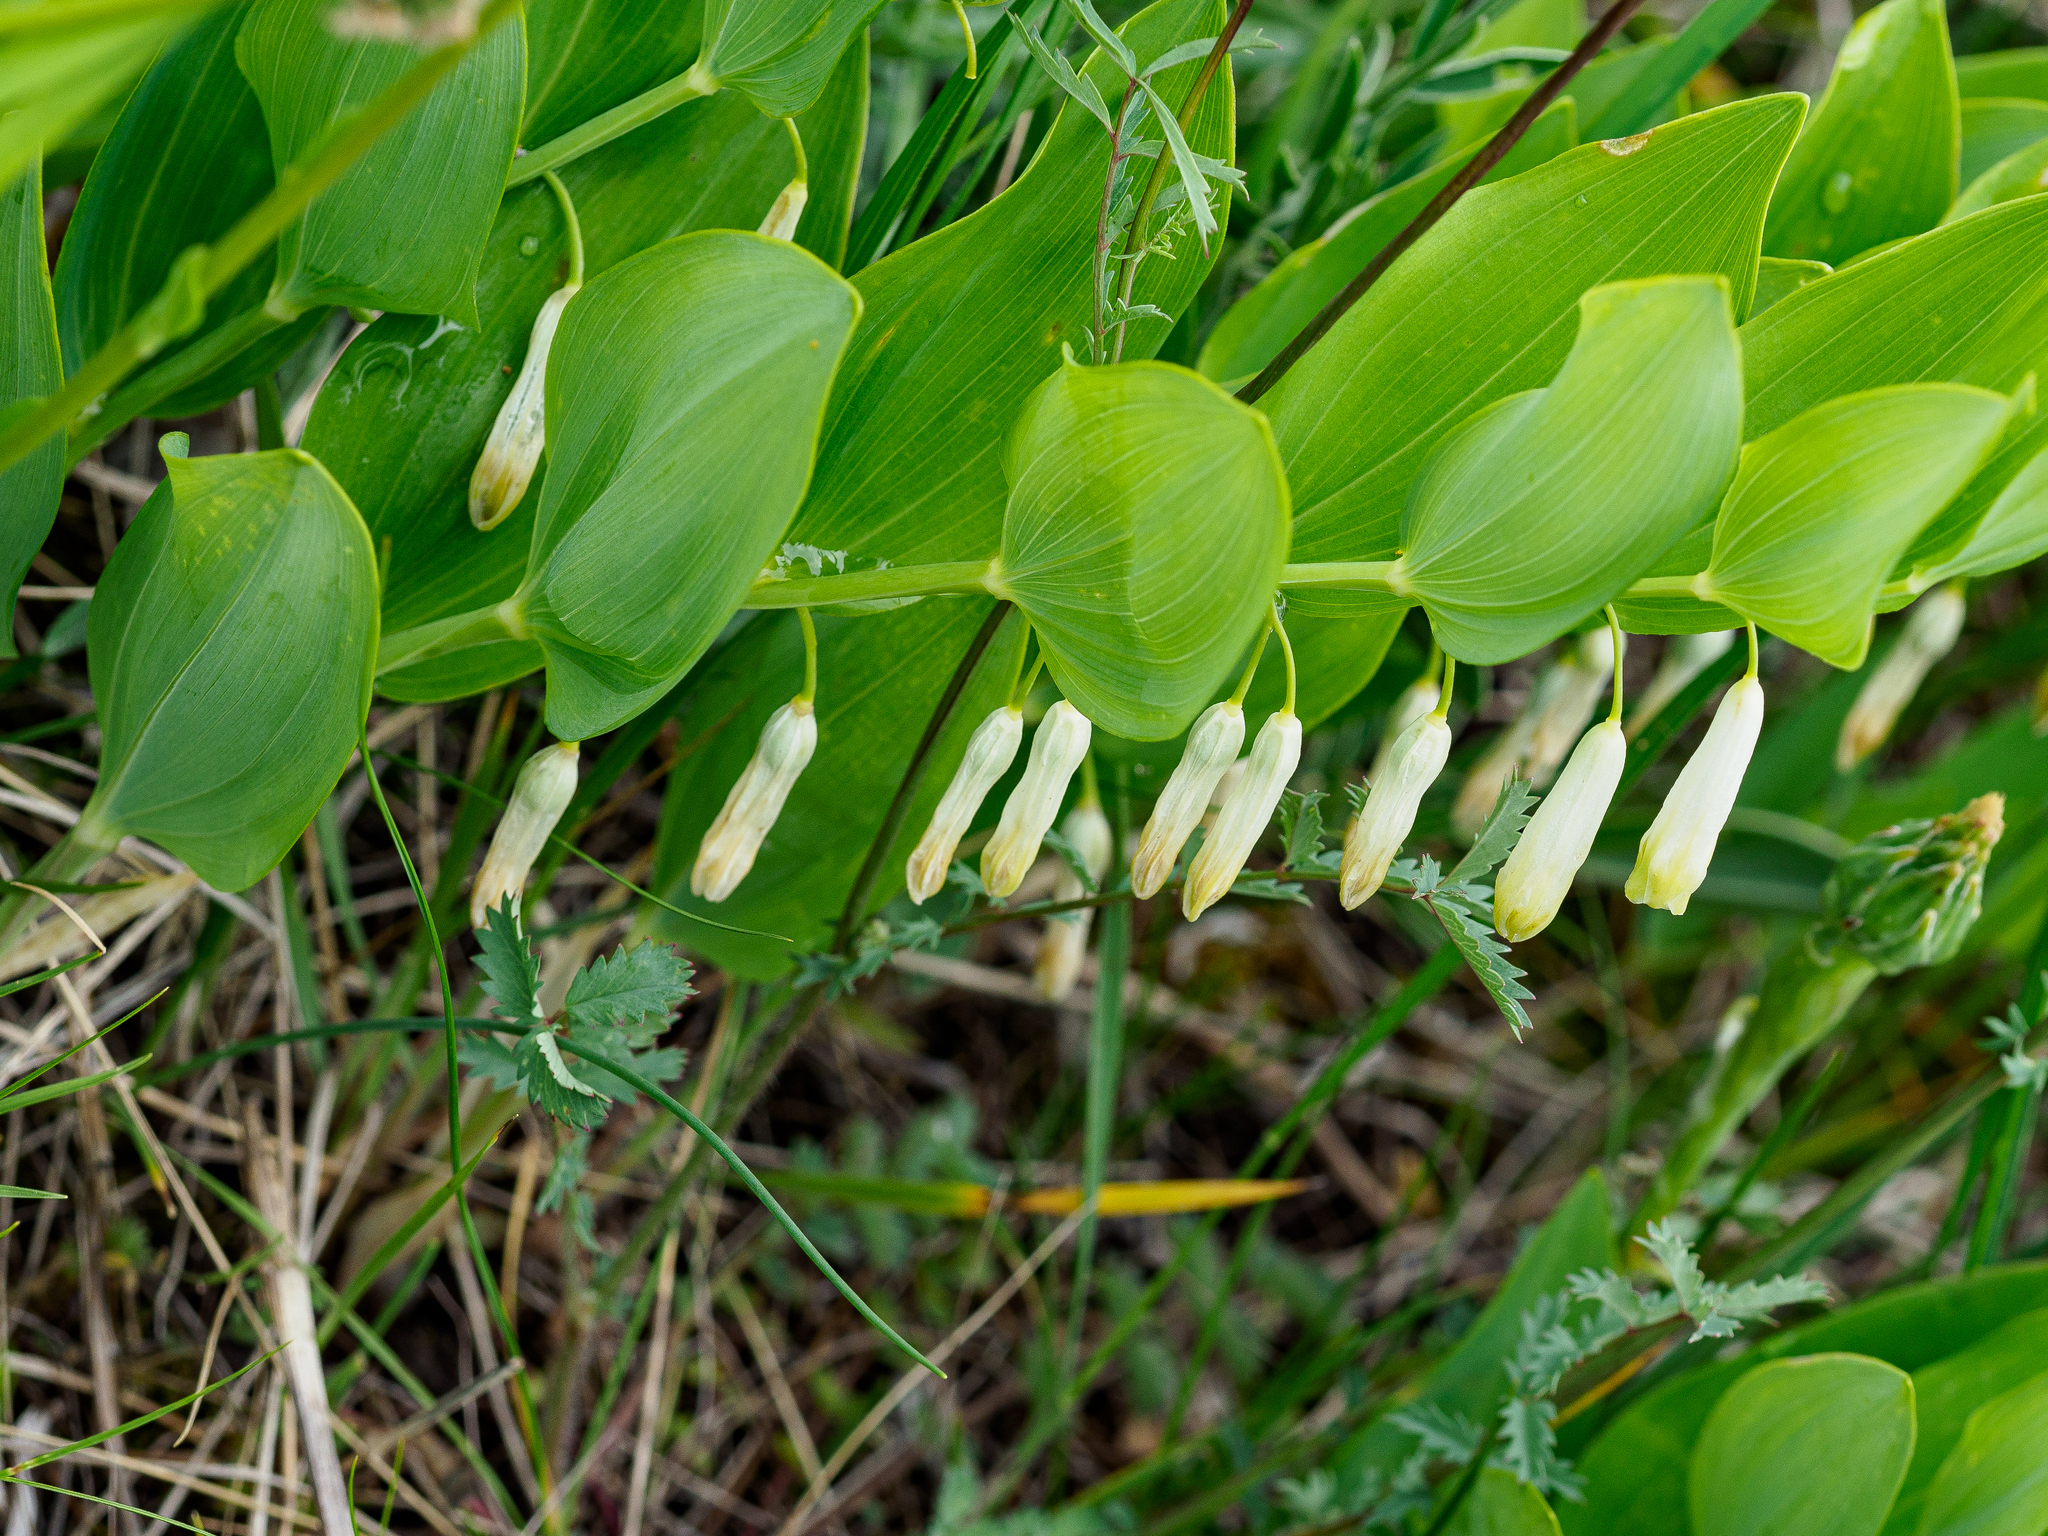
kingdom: Plantae
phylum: Tracheophyta
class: Liliopsida
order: Asparagales
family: Asparagaceae
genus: Polygonatum
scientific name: Polygonatum odoratum
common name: Angular solomon's-seal
